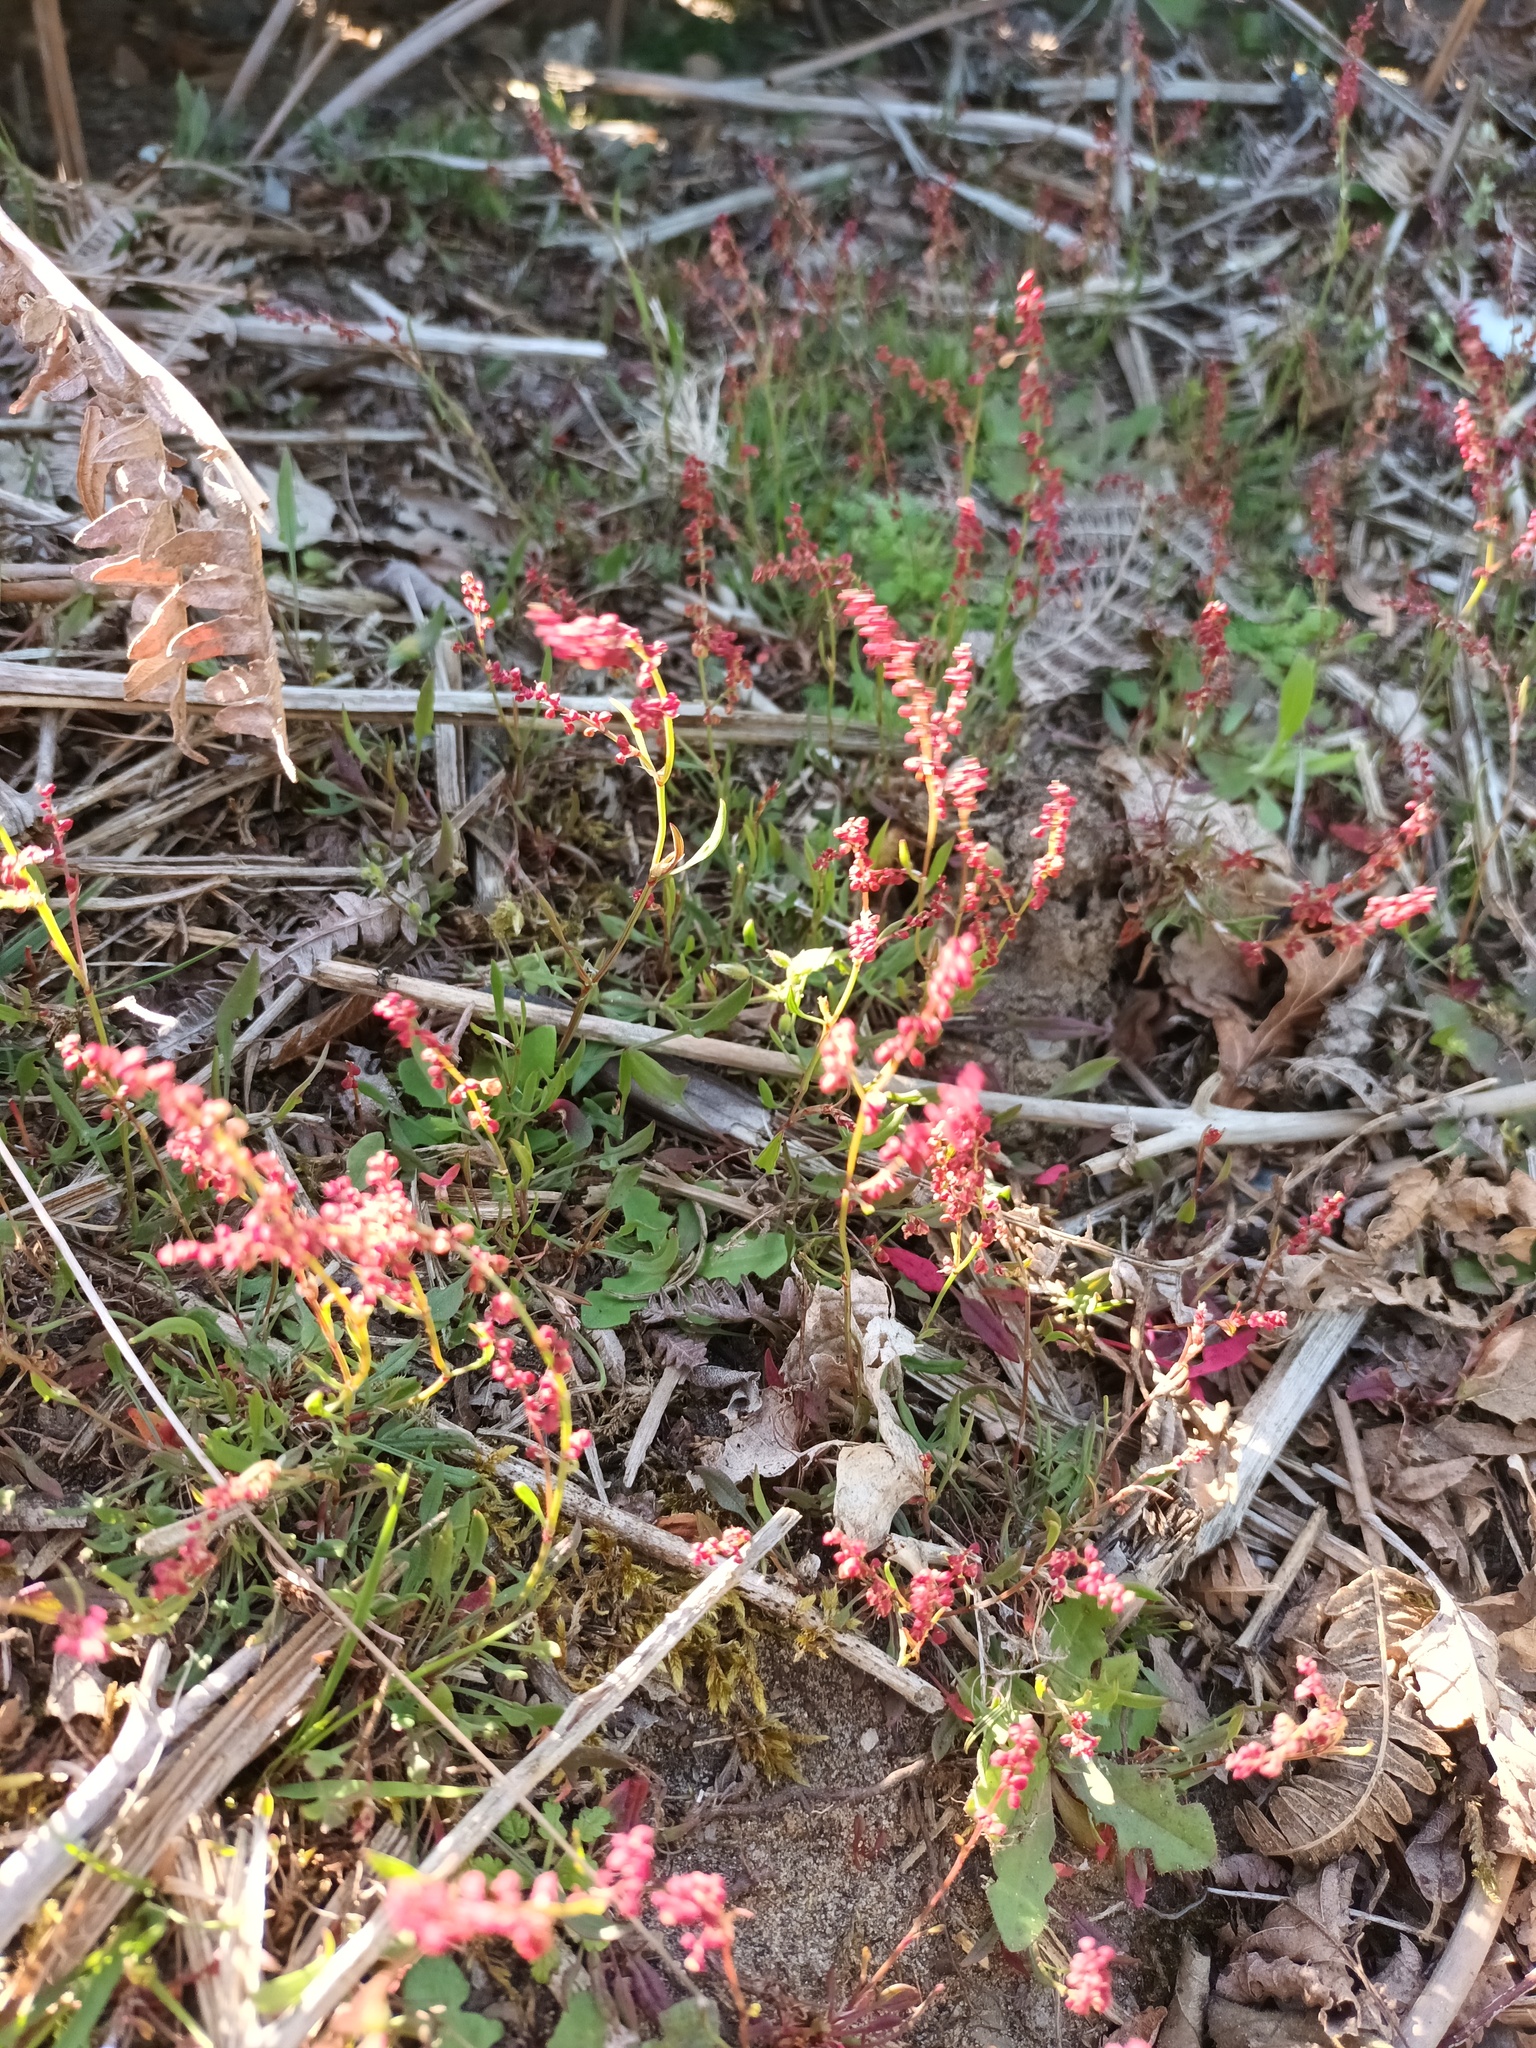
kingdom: Plantae
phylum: Tracheophyta
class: Magnoliopsida
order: Caryophyllales
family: Polygonaceae
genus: Rumex
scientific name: Rumex acetosella
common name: Common sheep sorrel
